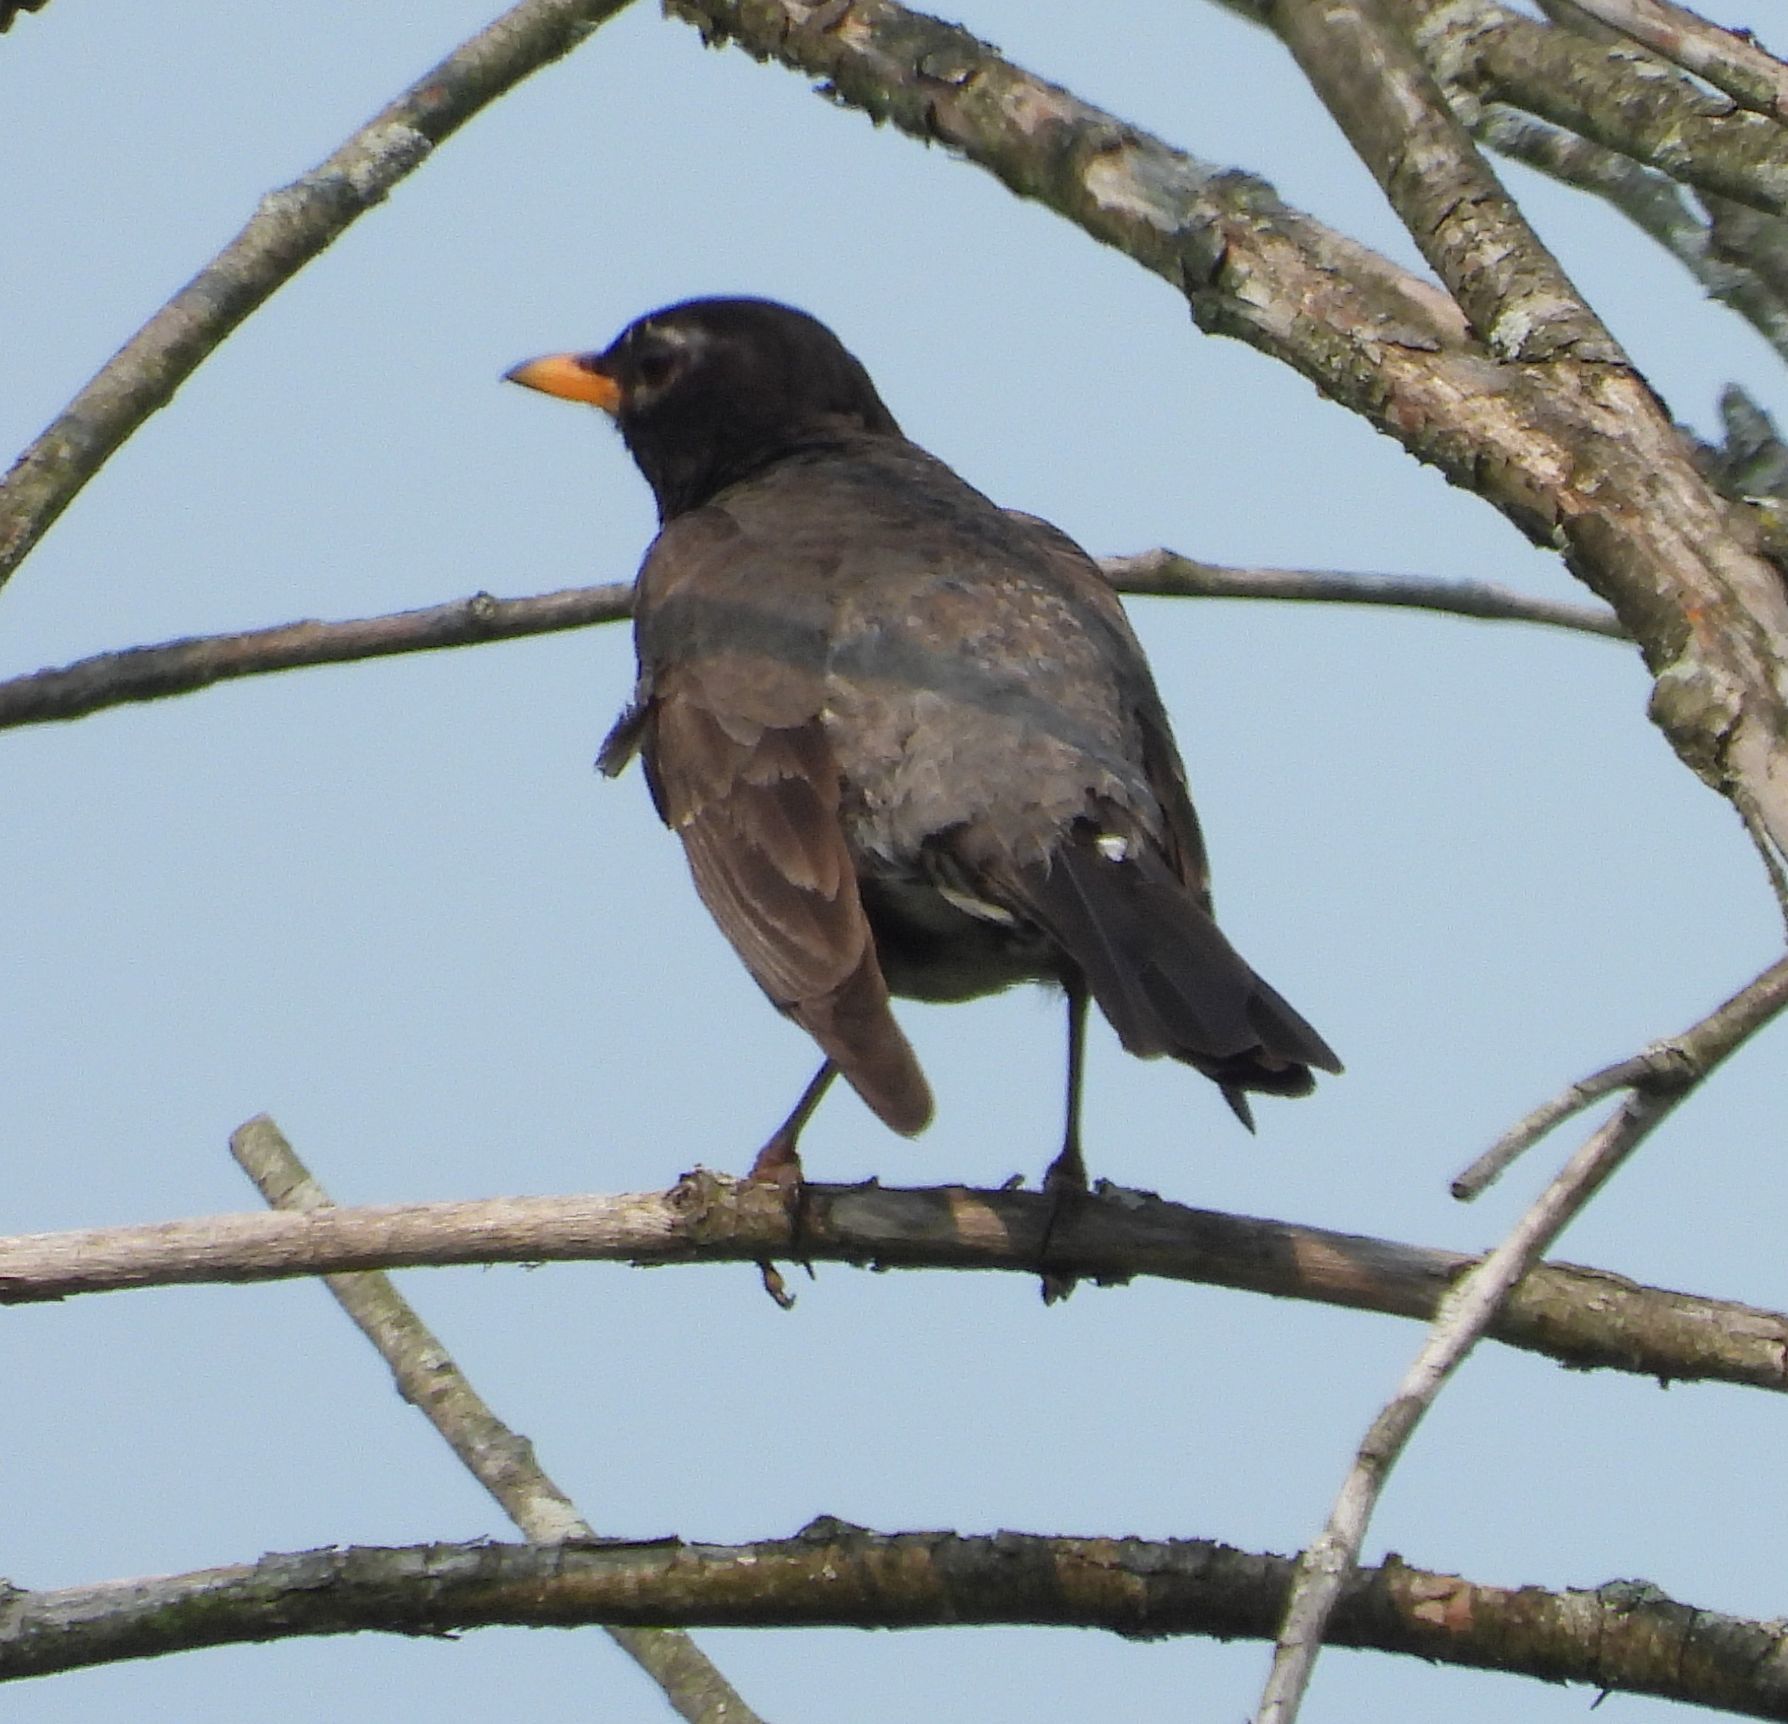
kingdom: Animalia
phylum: Chordata
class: Aves
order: Passeriformes
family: Turdidae
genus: Turdus
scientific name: Turdus migratorius
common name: American robin
